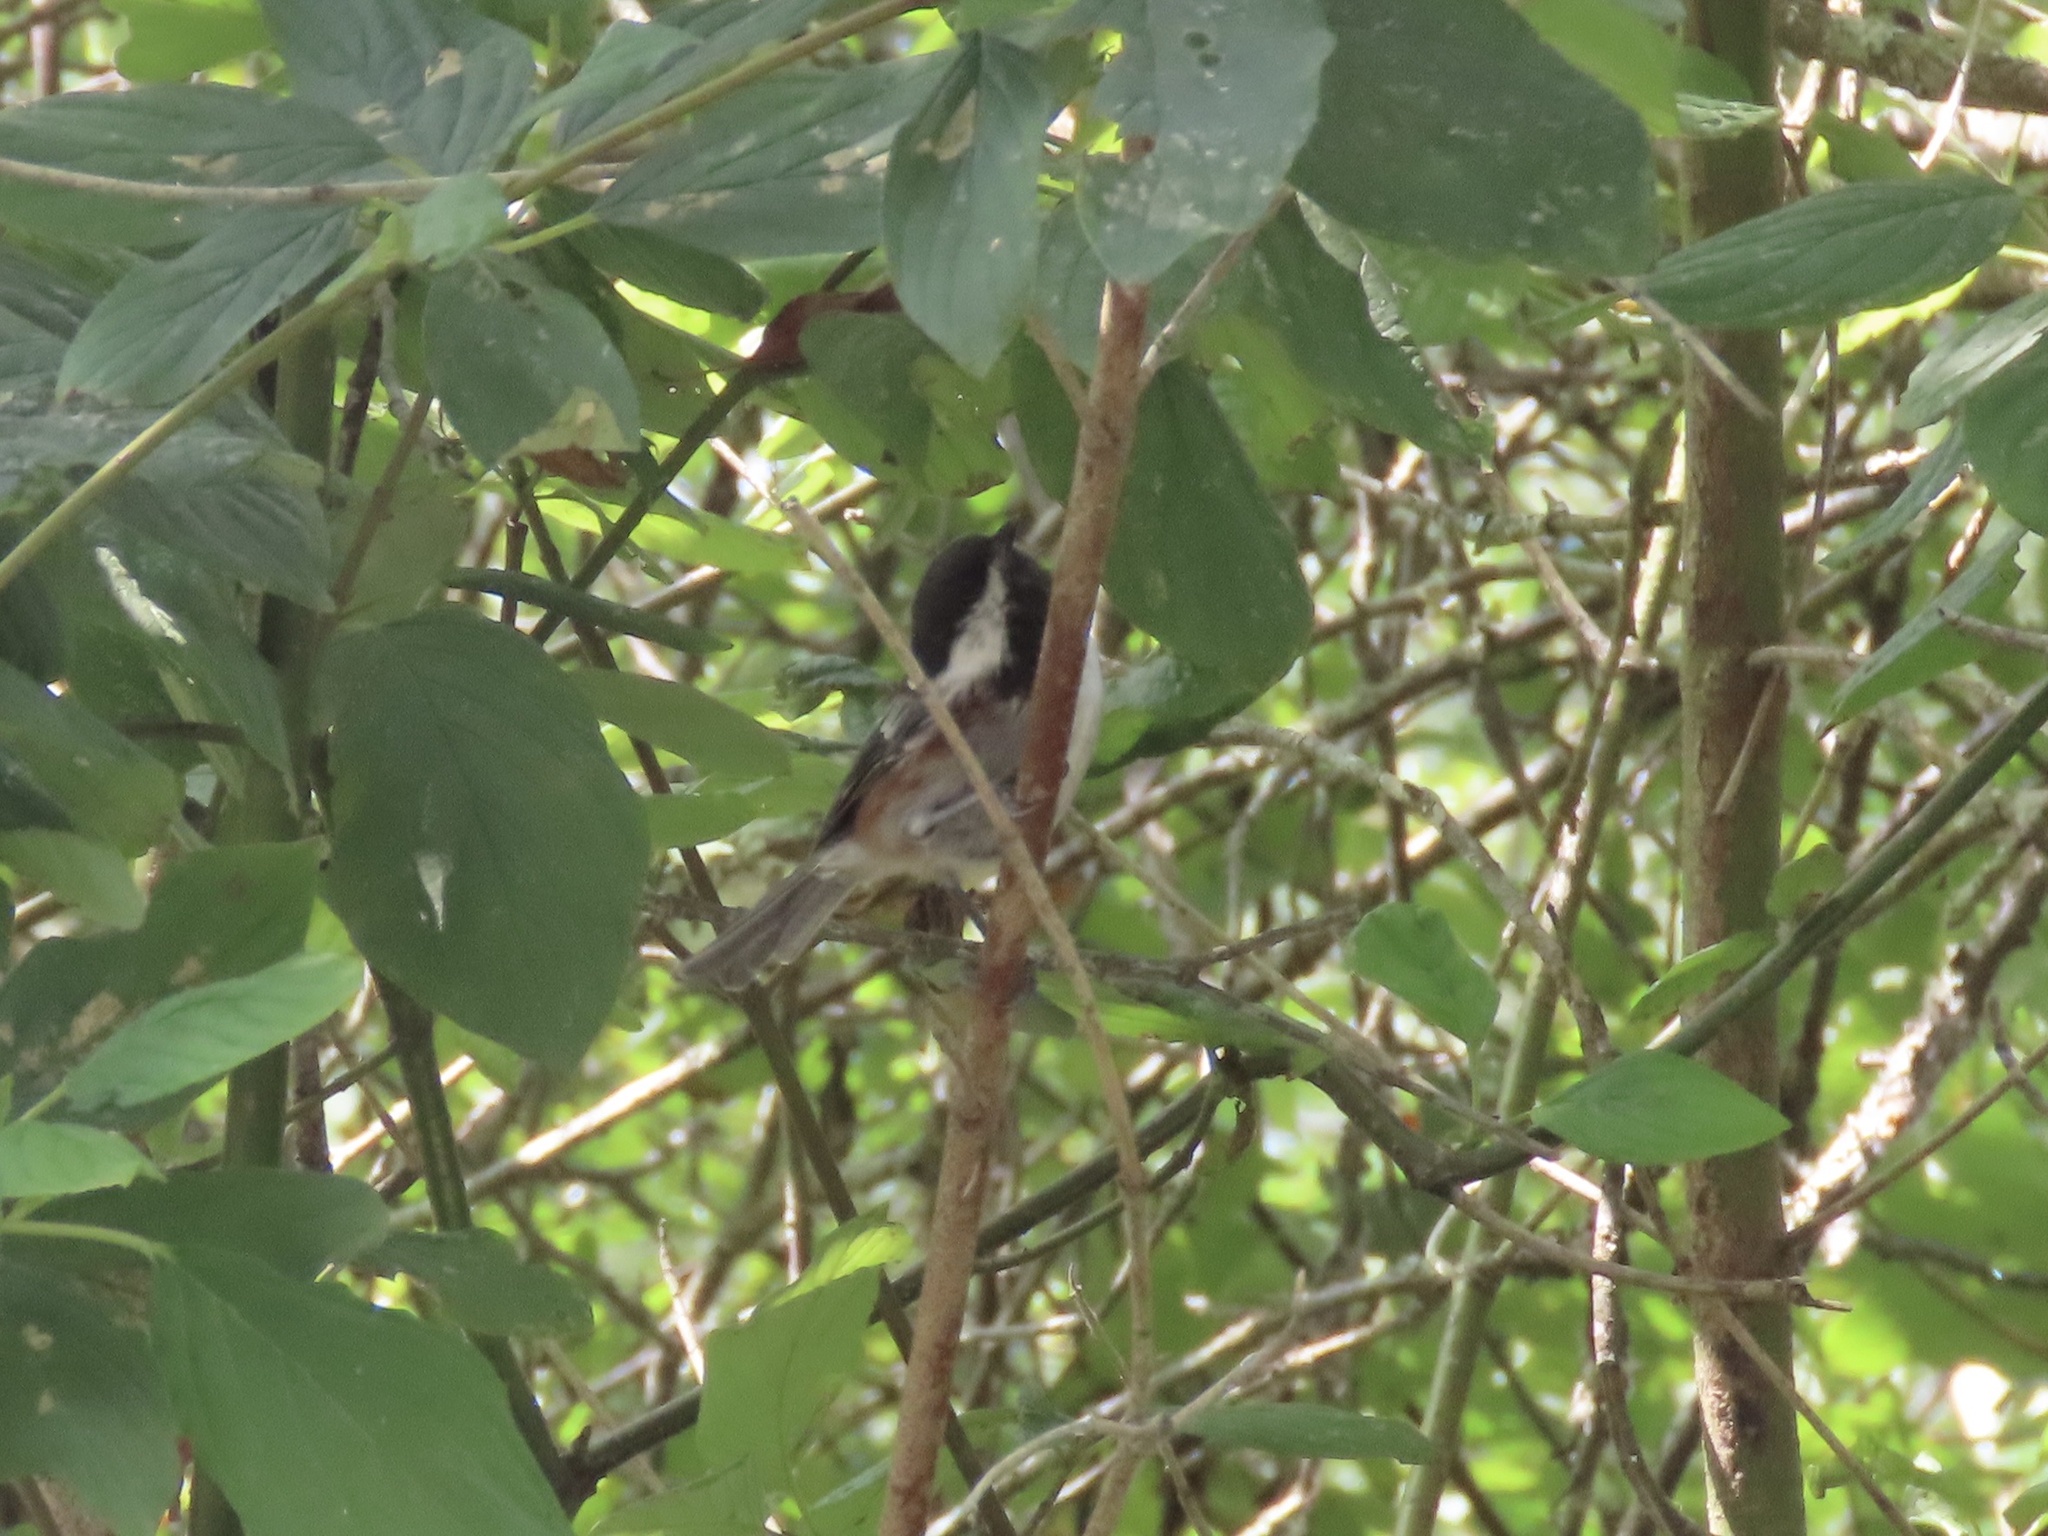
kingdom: Animalia
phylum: Chordata
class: Aves
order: Passeriformes
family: Paridae
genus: Poecile
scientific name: Poecile rufescens
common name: Chestnut-backed chickadee
